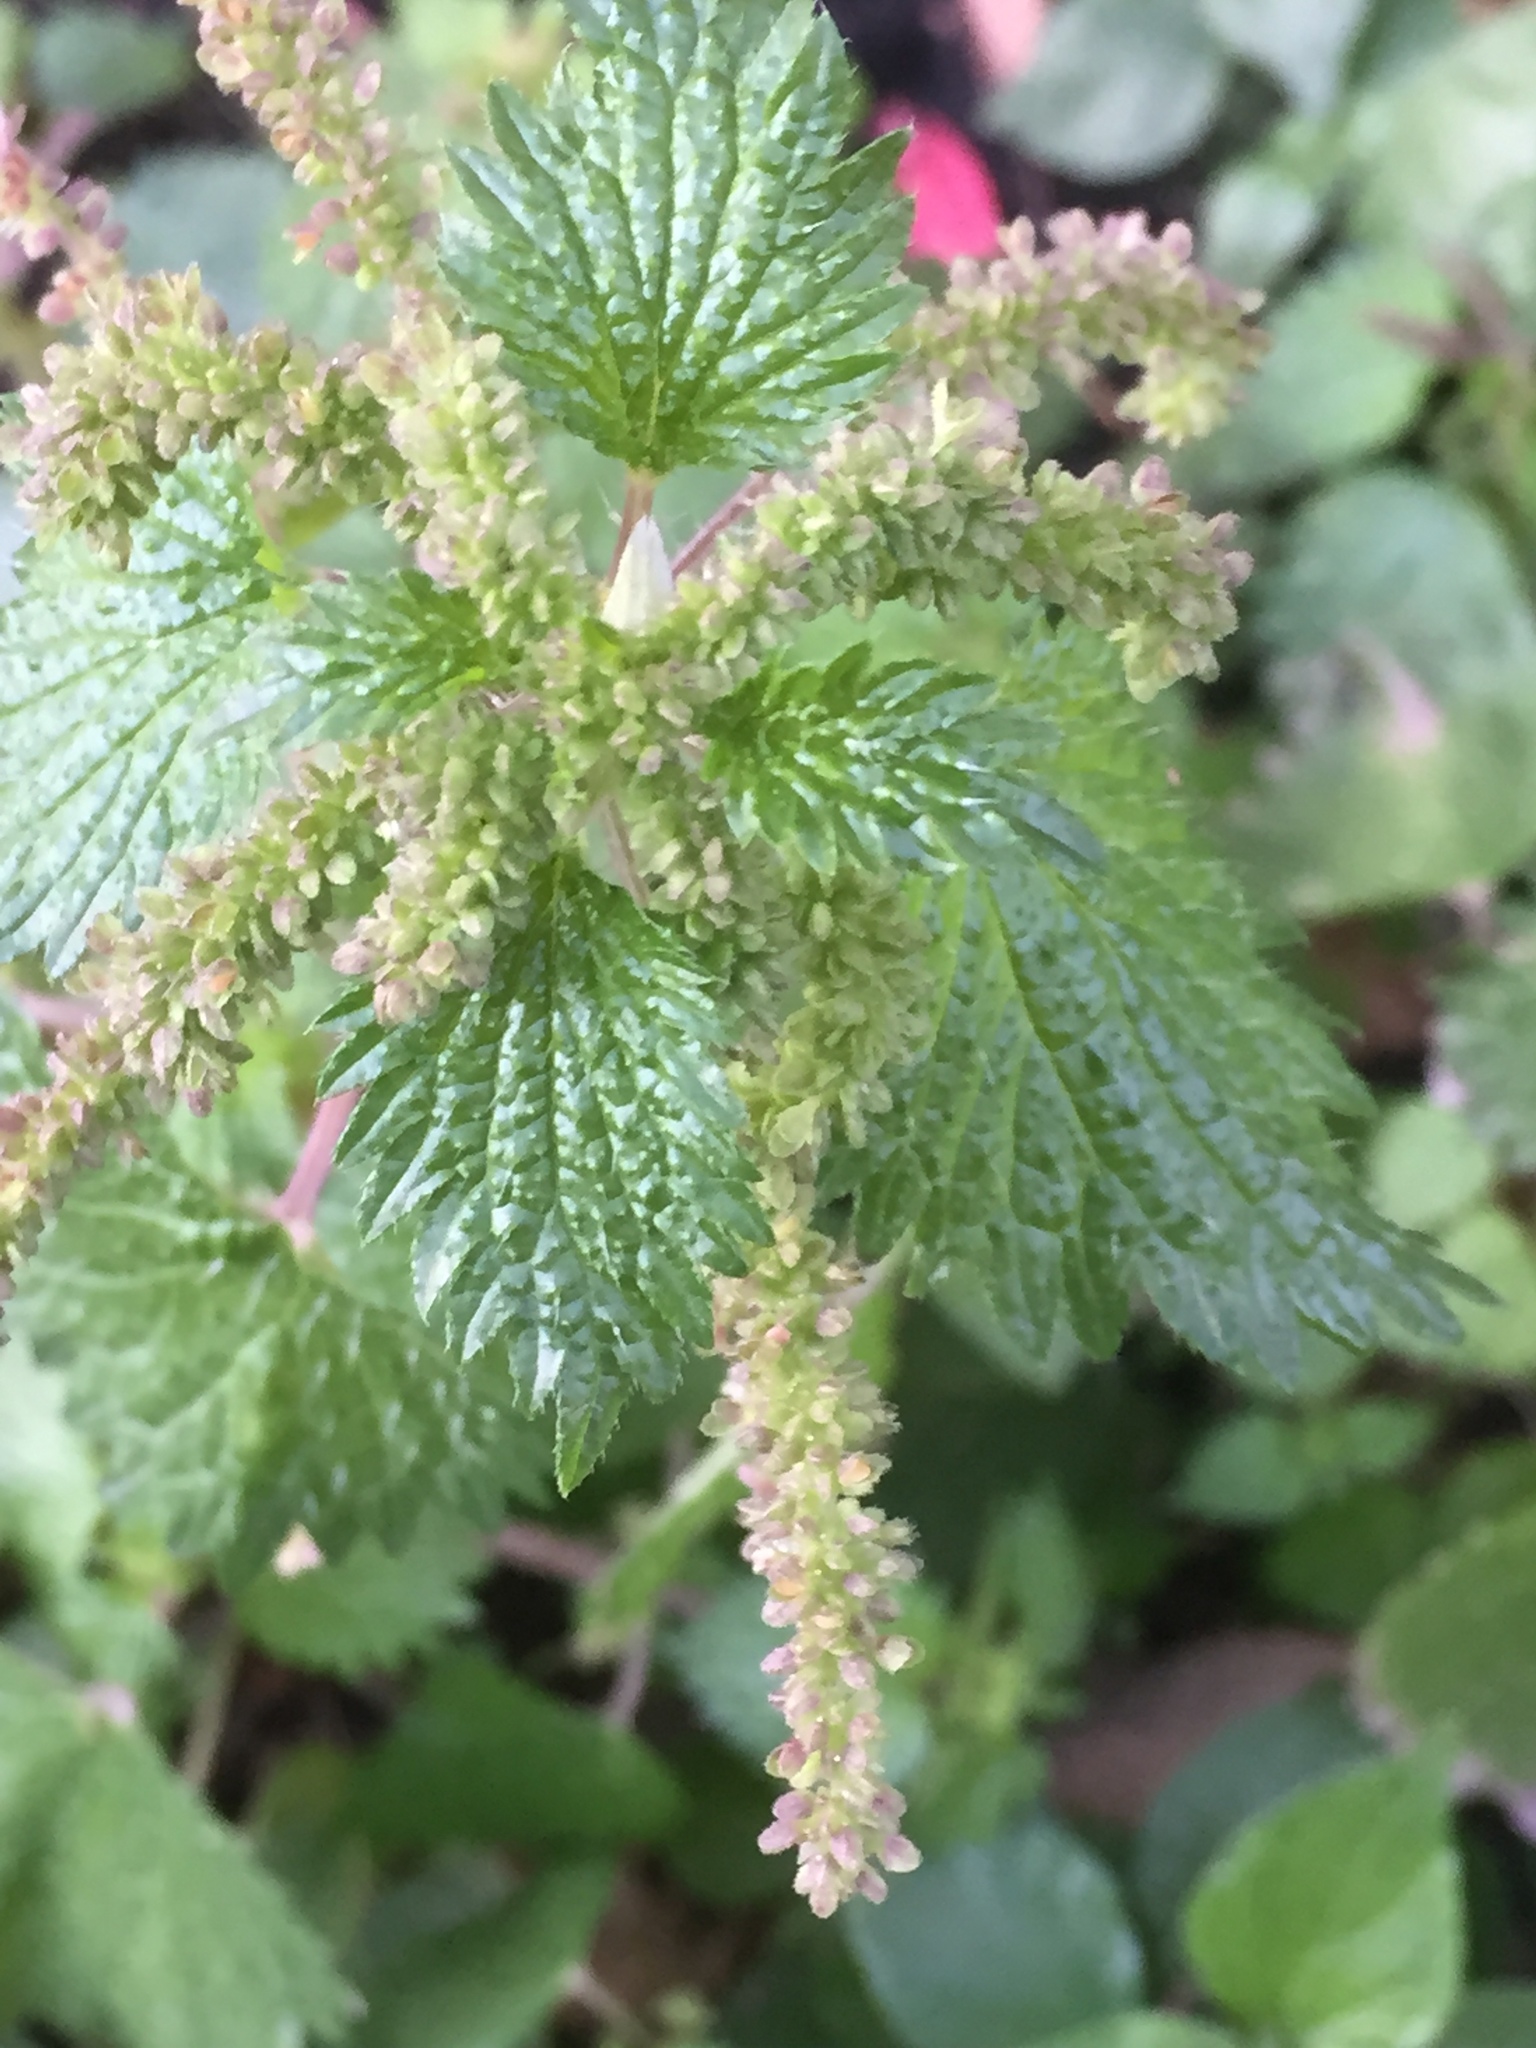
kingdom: Plantae
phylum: Tracheophyta
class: Magnoliopsida
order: Rosales
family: Urticaceae
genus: Urtica
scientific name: Urtica membranacea
